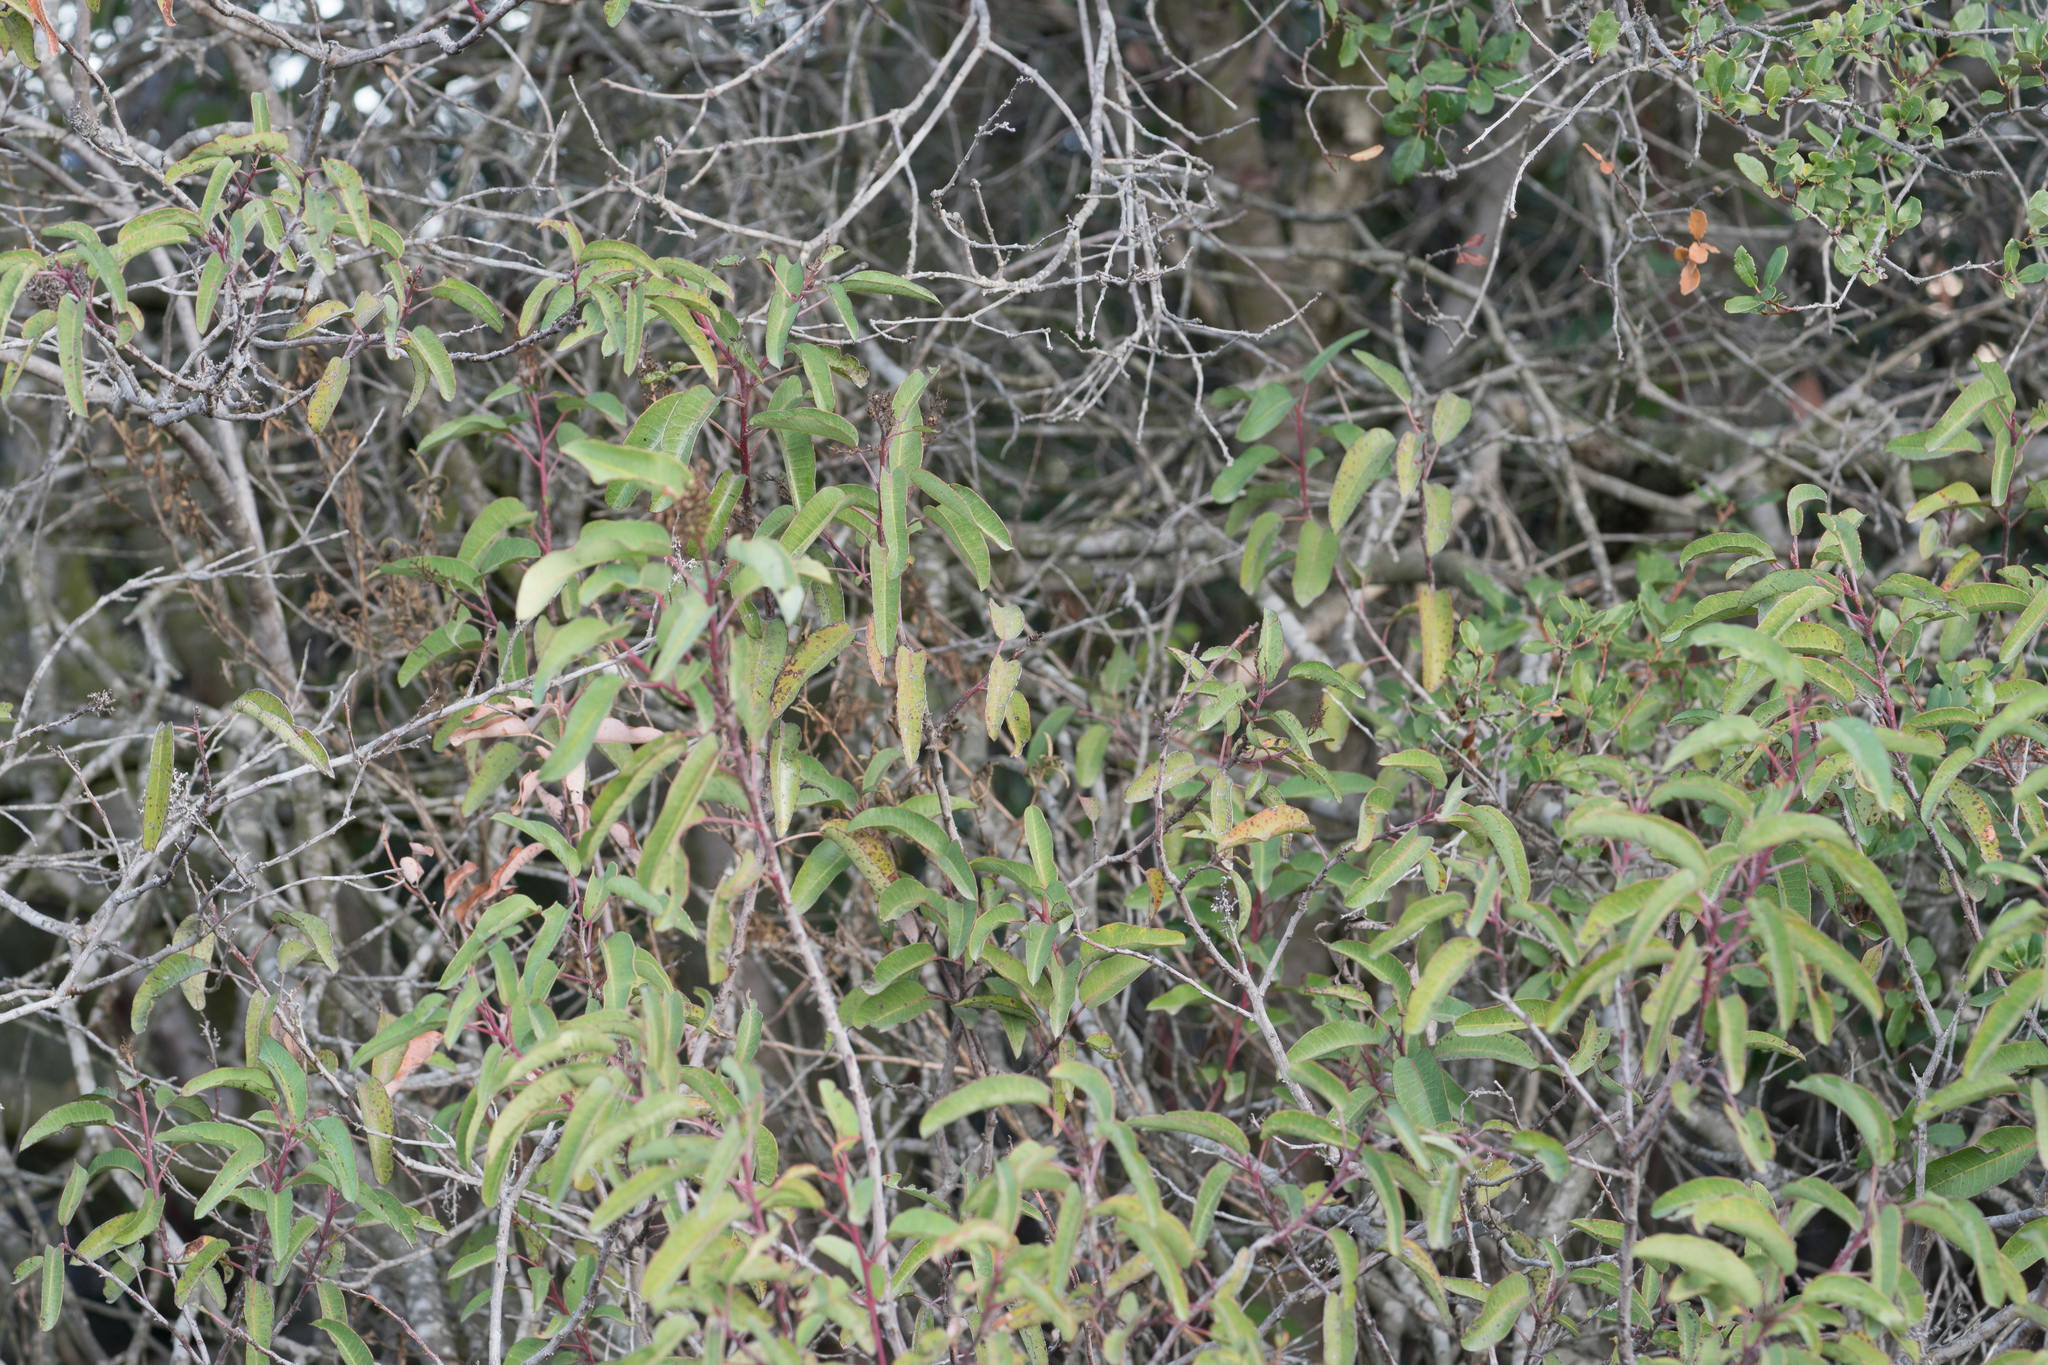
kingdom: Plantae
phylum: Tracheophyta
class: Magnoliopsida
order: Sapindales
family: Anacardiaceae
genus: Malosma
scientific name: Malosma laurina
